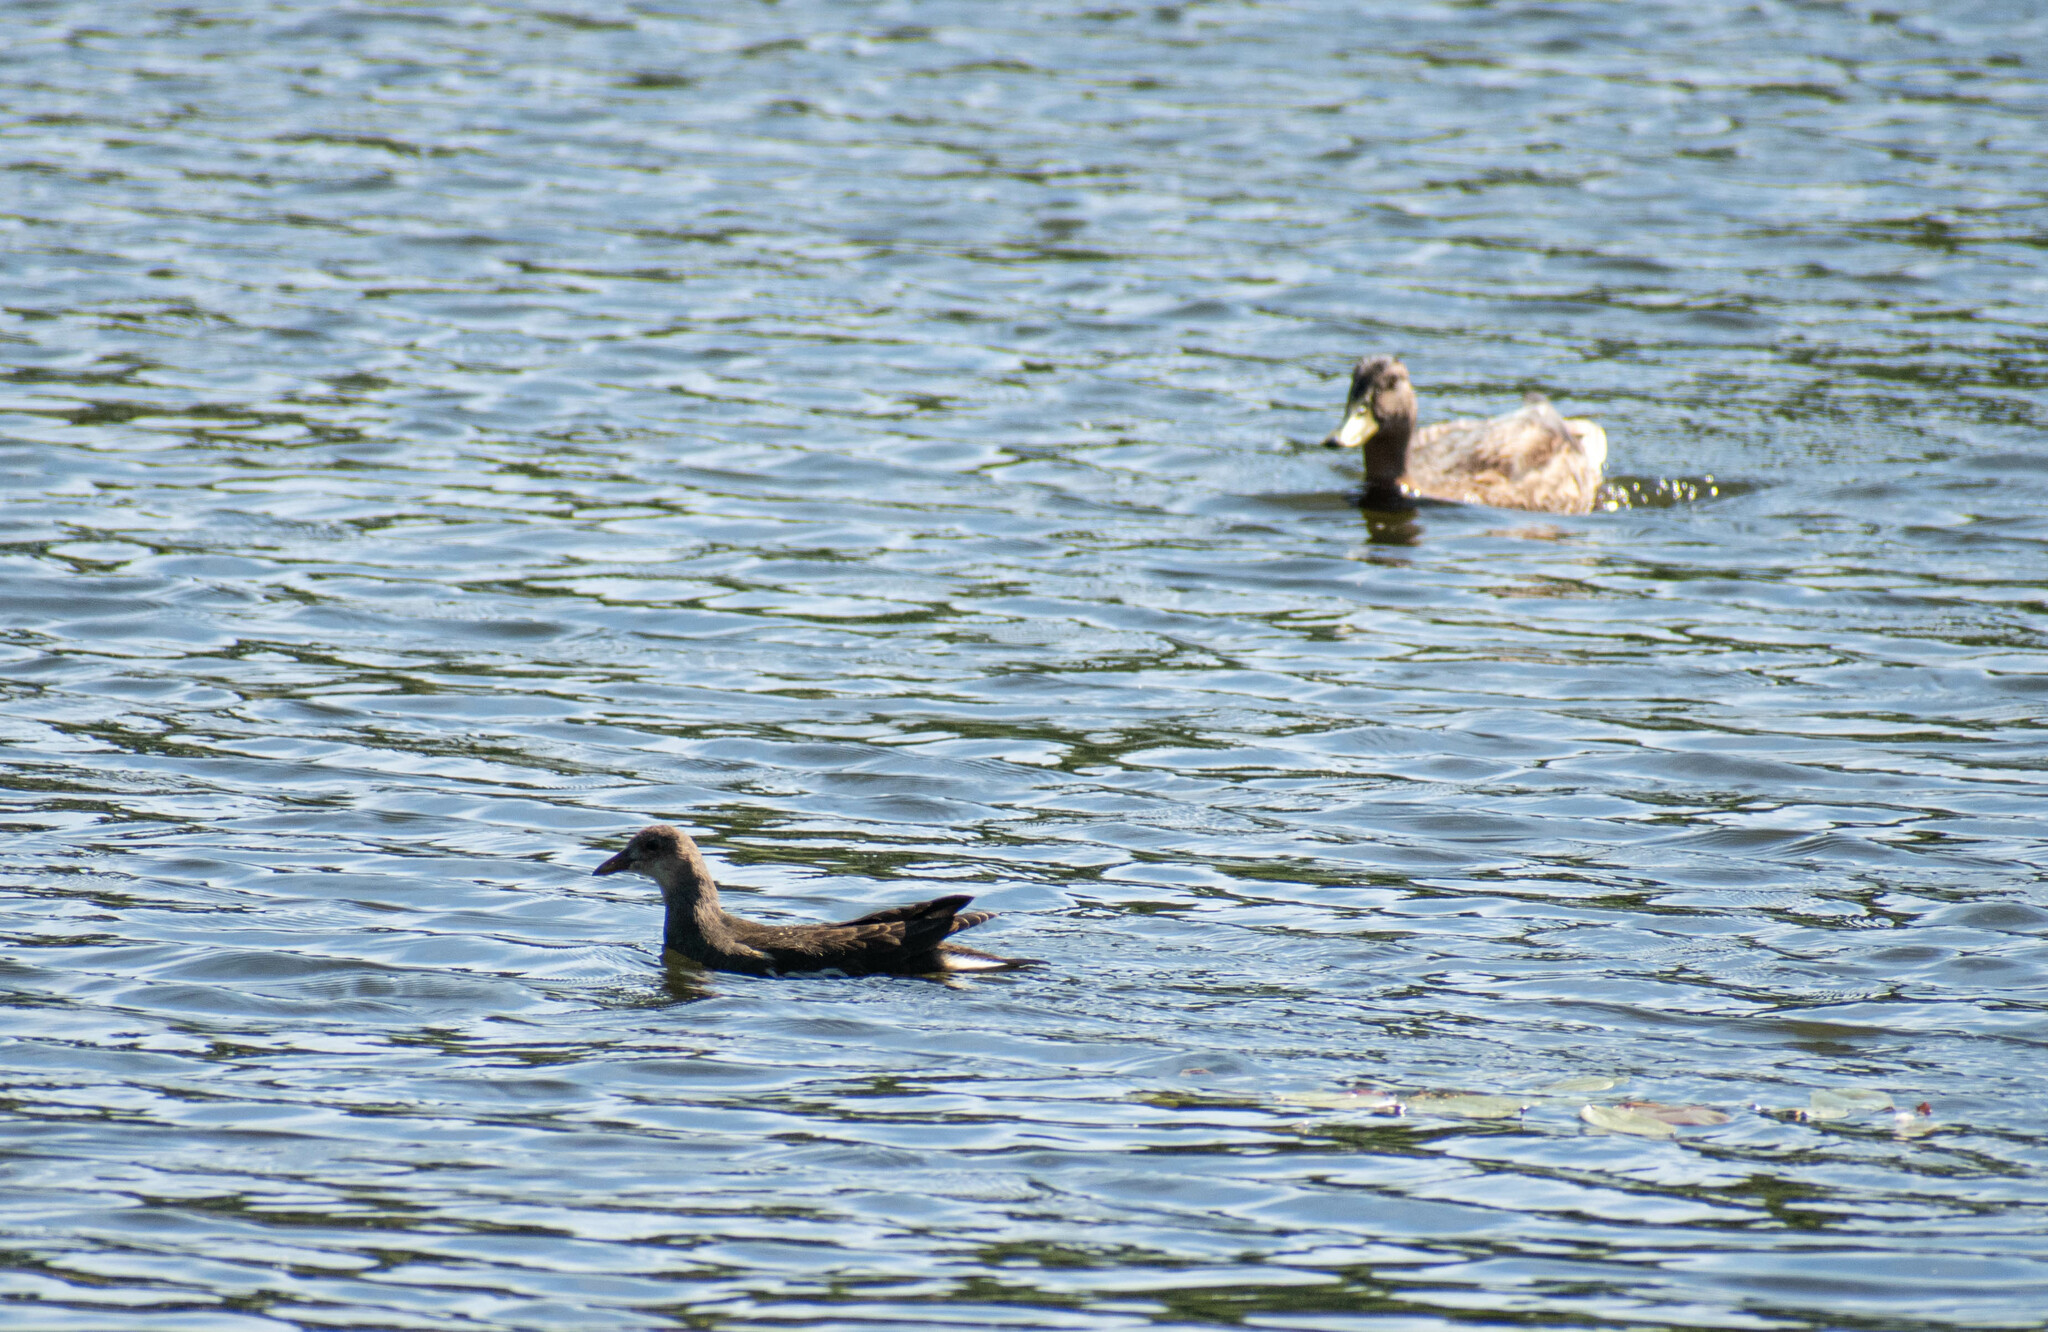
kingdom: Animalia
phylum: Chordata
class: Aves
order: Gruiformes
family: Rallidae
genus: Gallinula
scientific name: Gallinula chloropus
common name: Common moorhen
